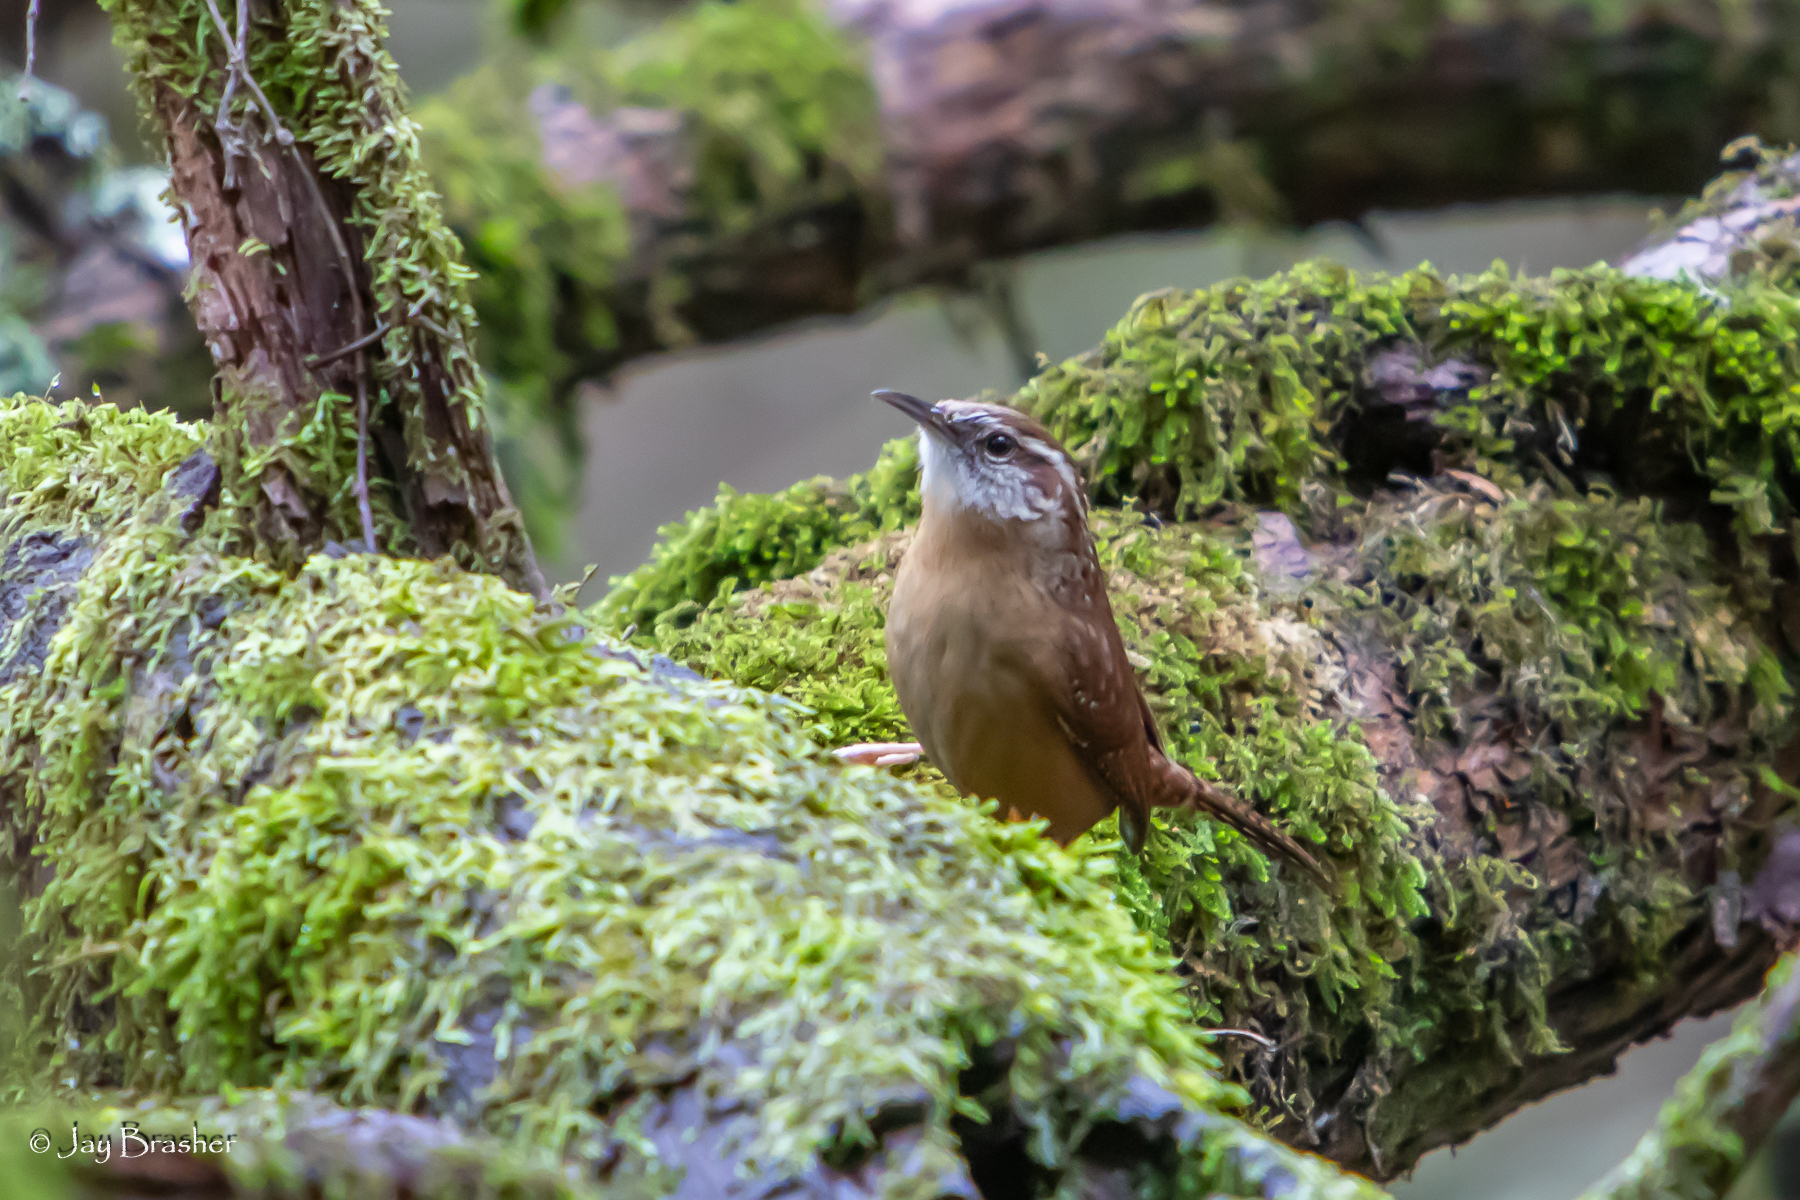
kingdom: Animalia
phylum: Chordata
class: Aves
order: Passeriformes
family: Troglodytidae
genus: Thryothorus
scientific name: Thryothorus ludovicianus
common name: Carolina wren
